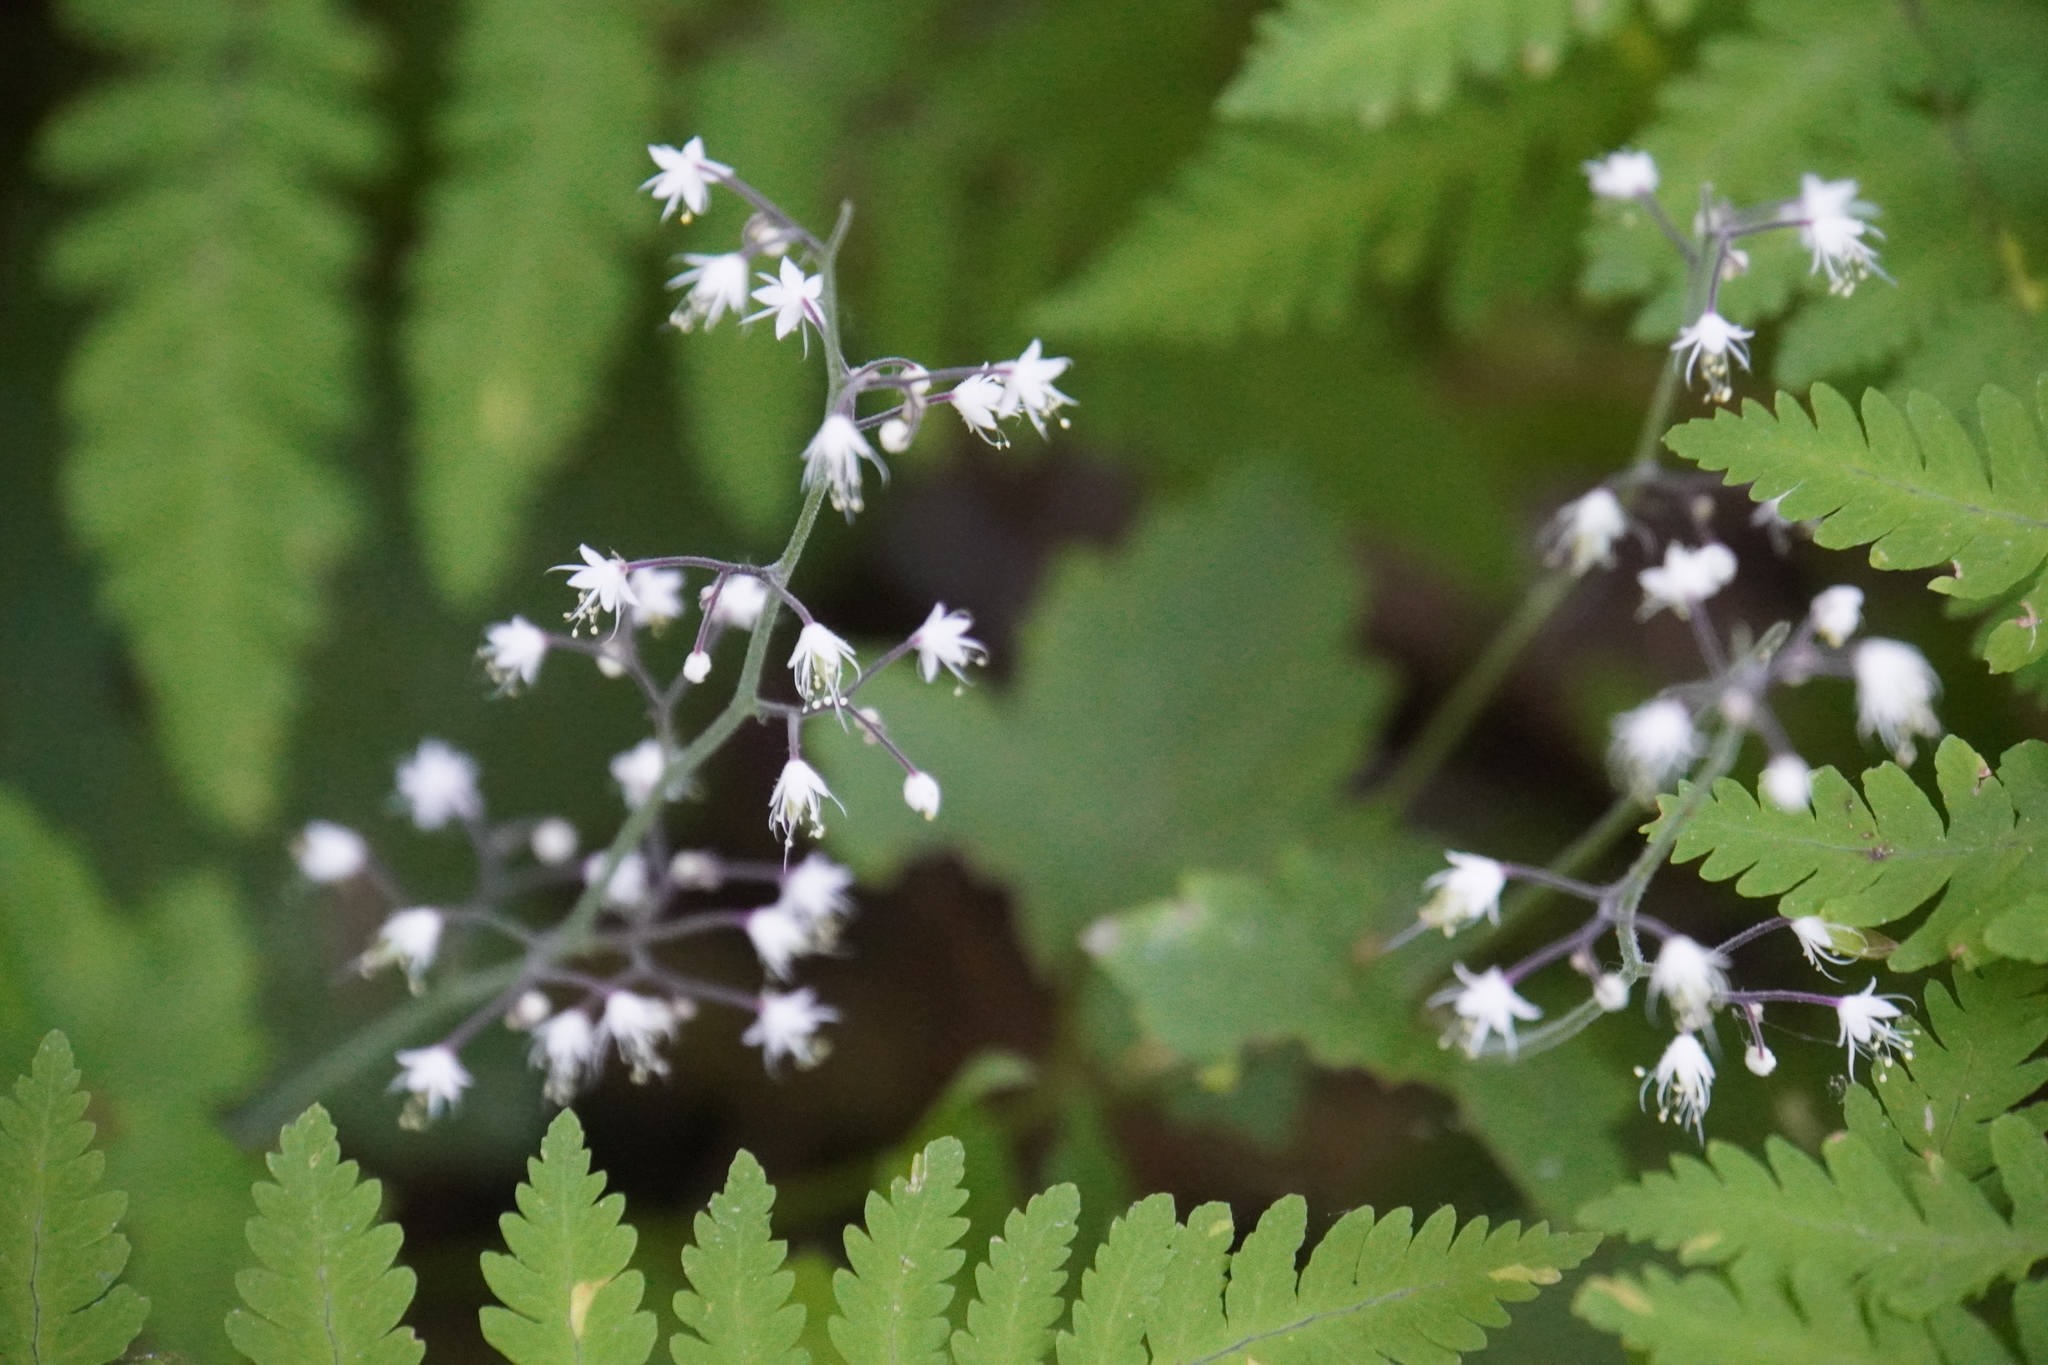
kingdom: Plantae
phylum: Tracheophyta
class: Magnoliopsida
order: Saxifragales
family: Saxifragaceae
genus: Tiarella
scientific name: Tiarella trifoliata
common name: Sugar-scoop
